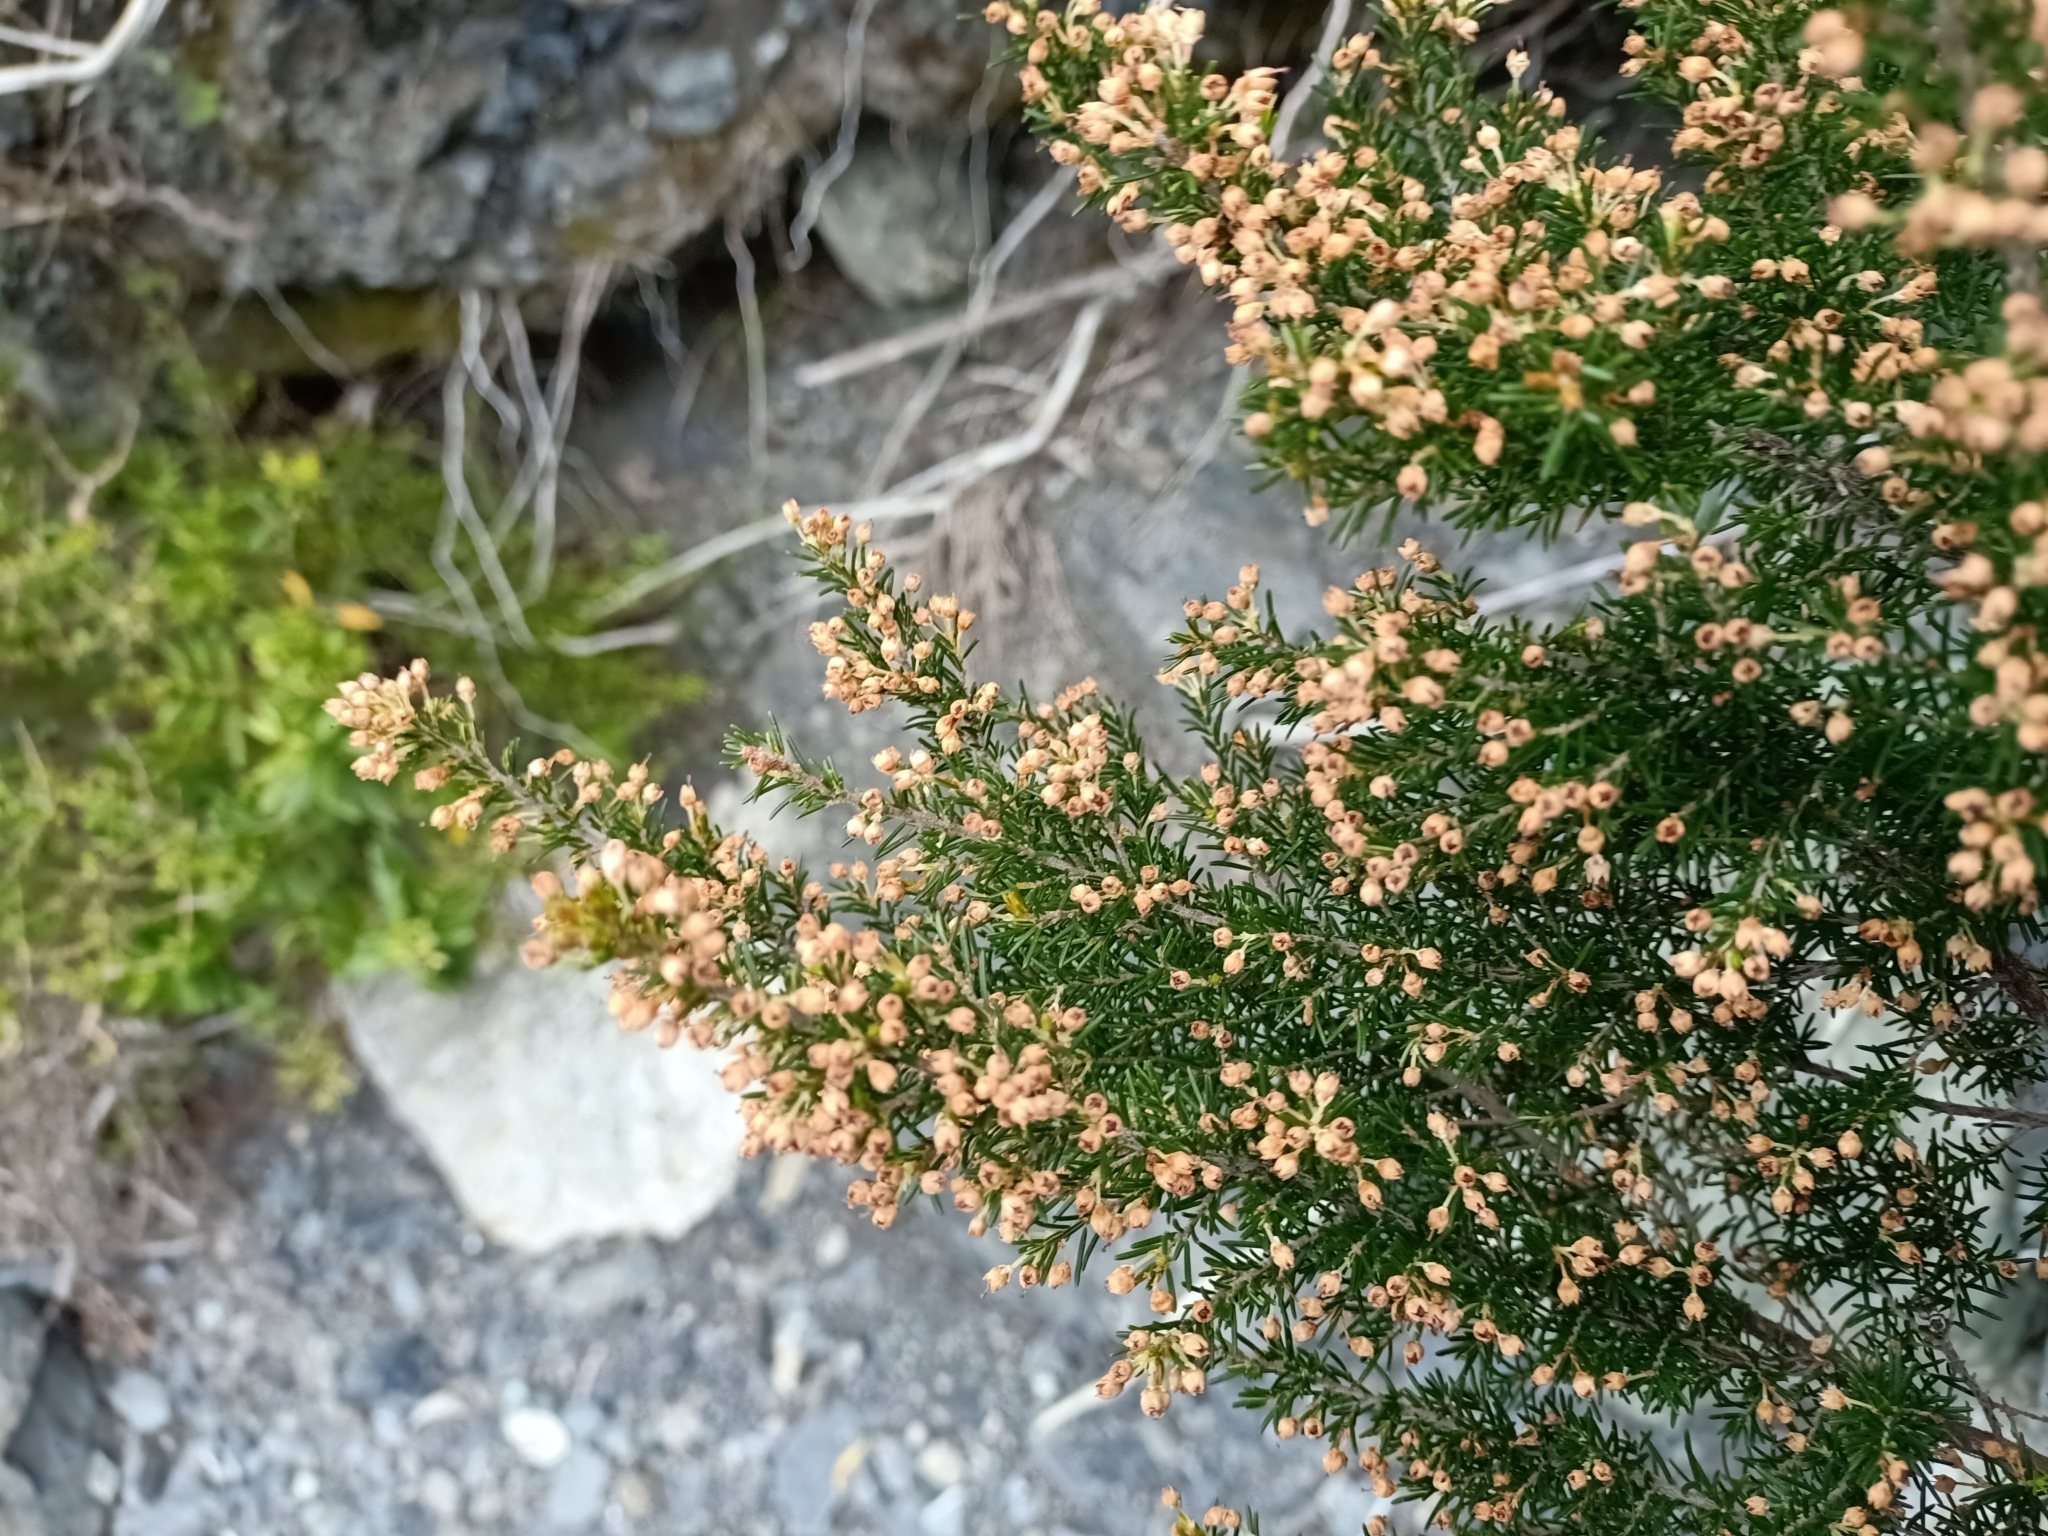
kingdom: Plantae
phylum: Tracheophyta
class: Magnoliopsida
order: Ericales
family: Ericaceae
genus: Erica
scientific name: Erica lusitanica
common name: Spanish heath
